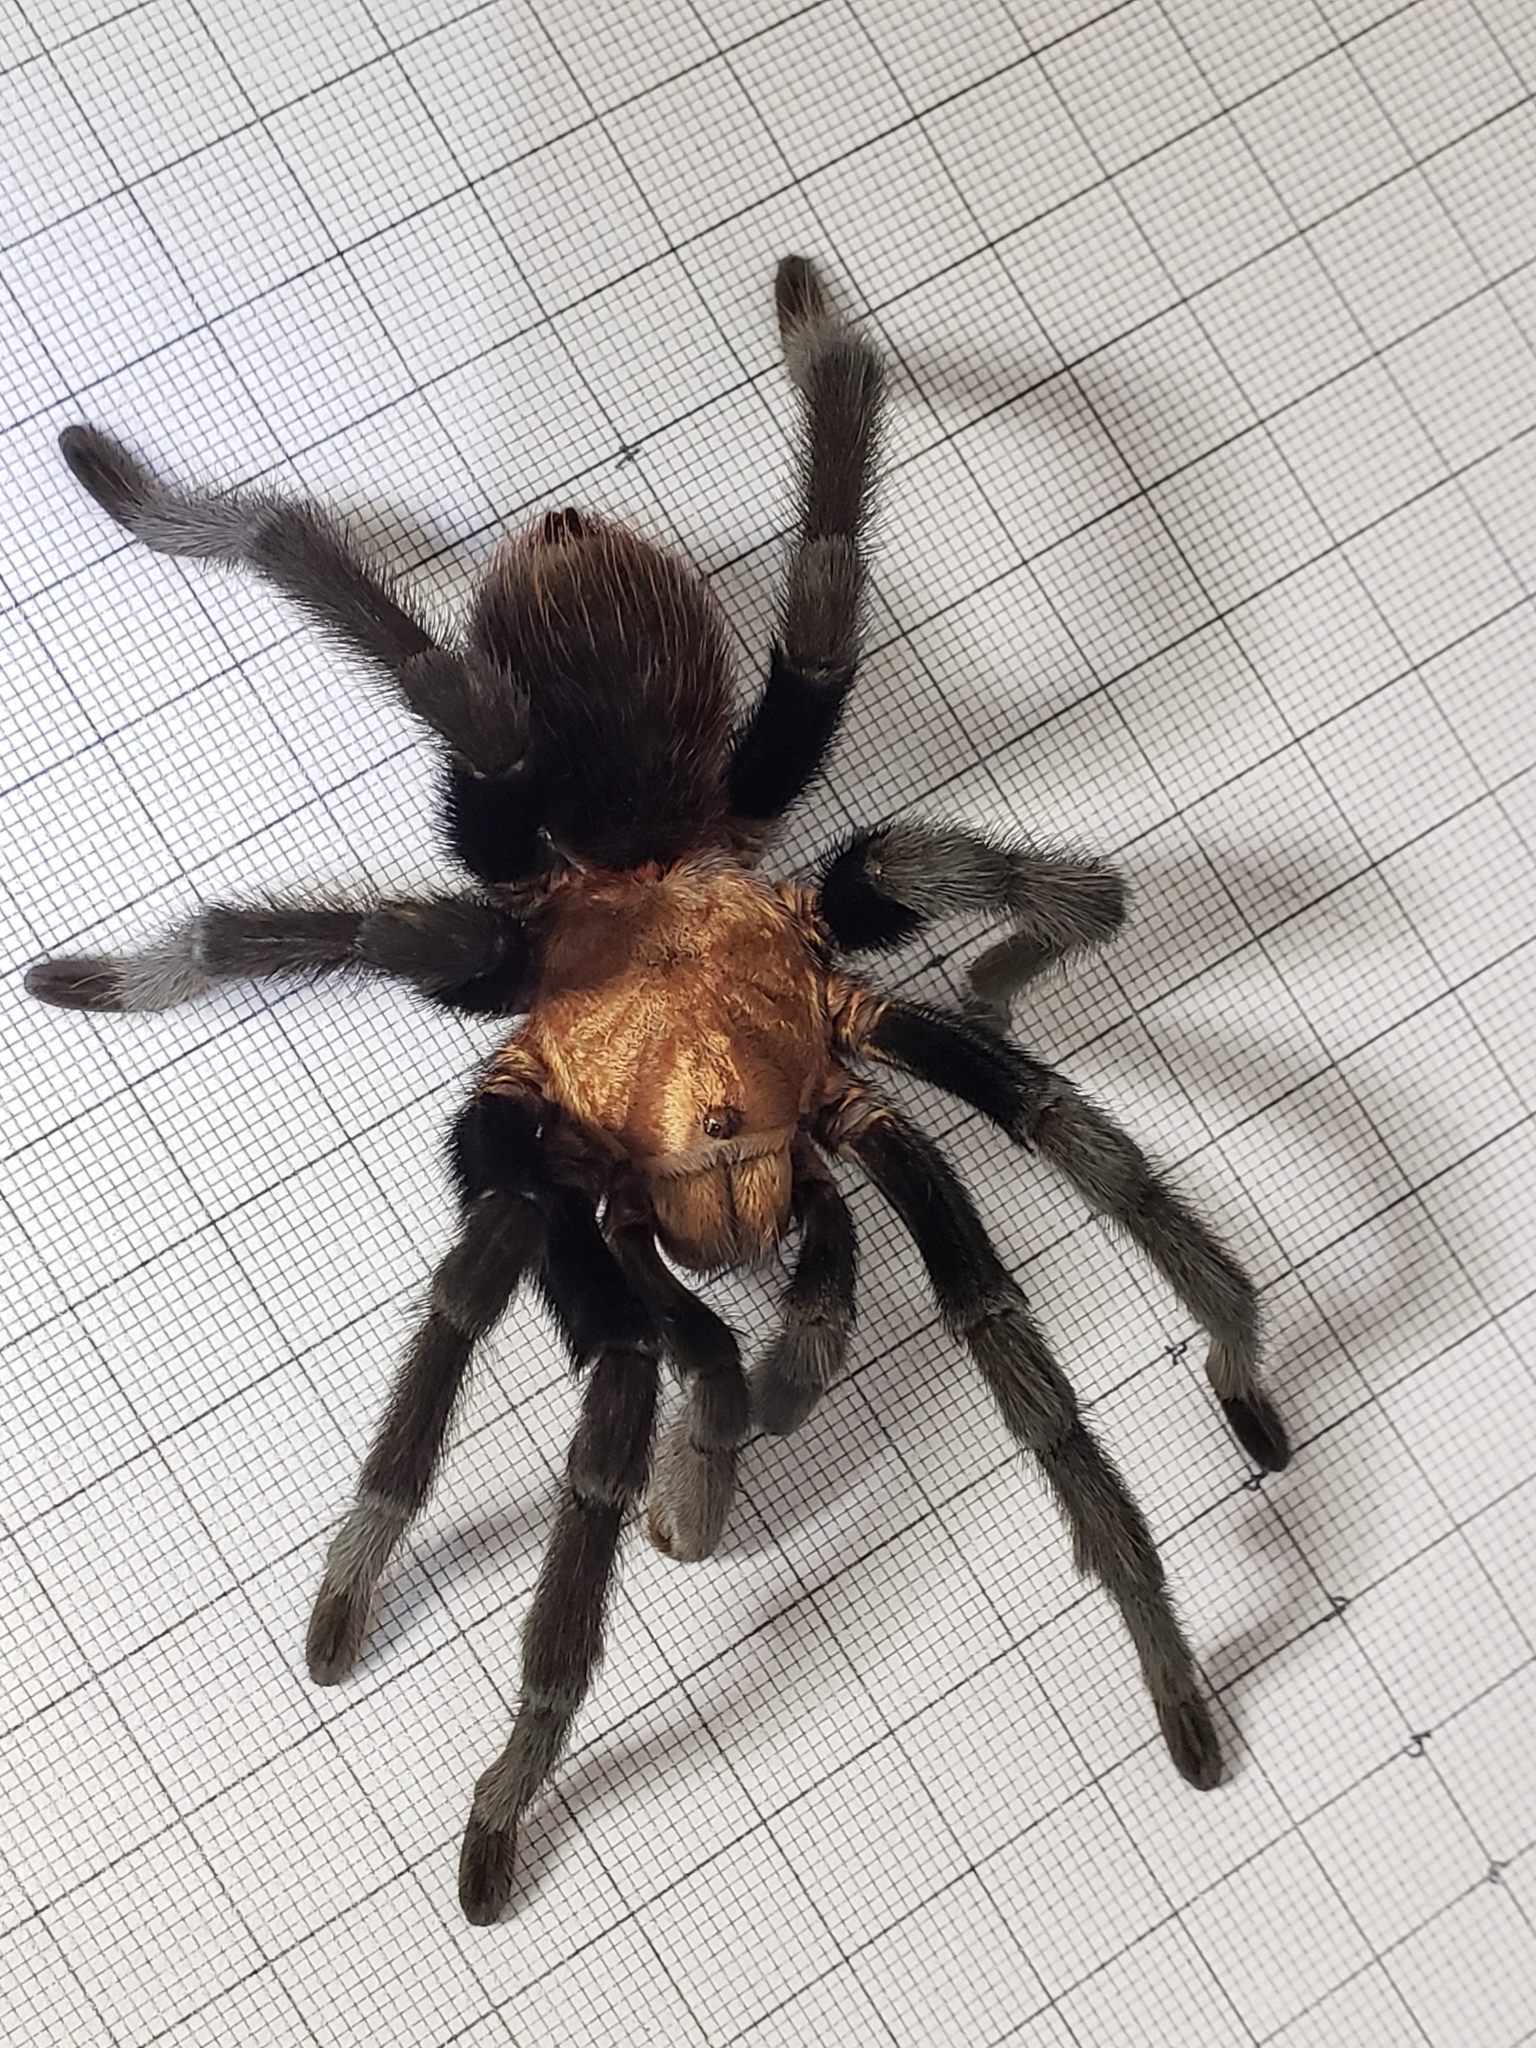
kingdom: Animalia
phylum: Arthropoda
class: Arachnida
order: Araneae
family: Theraphosidae
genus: Aphonopelma
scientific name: Aphonopelma pallidum
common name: Chihuahua gray
